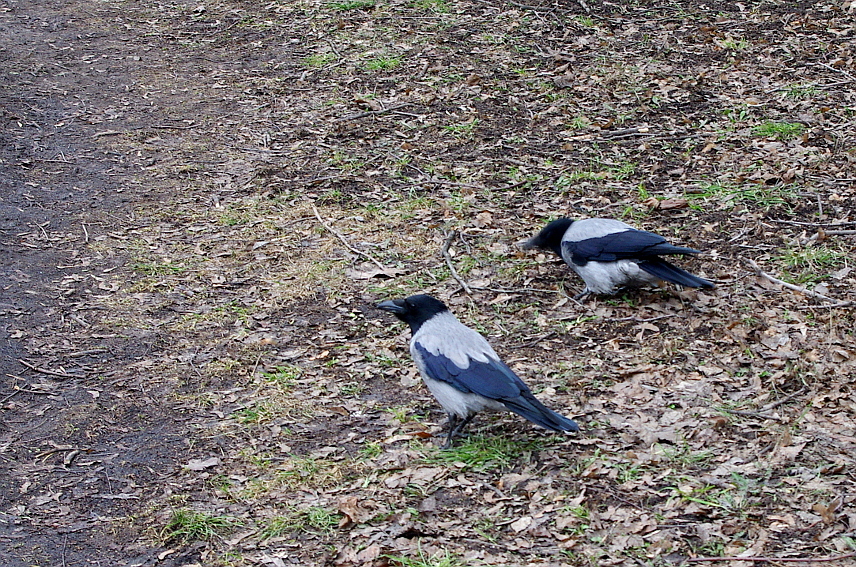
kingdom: Animalia
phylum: Chordata
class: Aves
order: Passeriformes
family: Corvidae
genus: Corvus
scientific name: Corvus cornix
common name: Hooded crow
